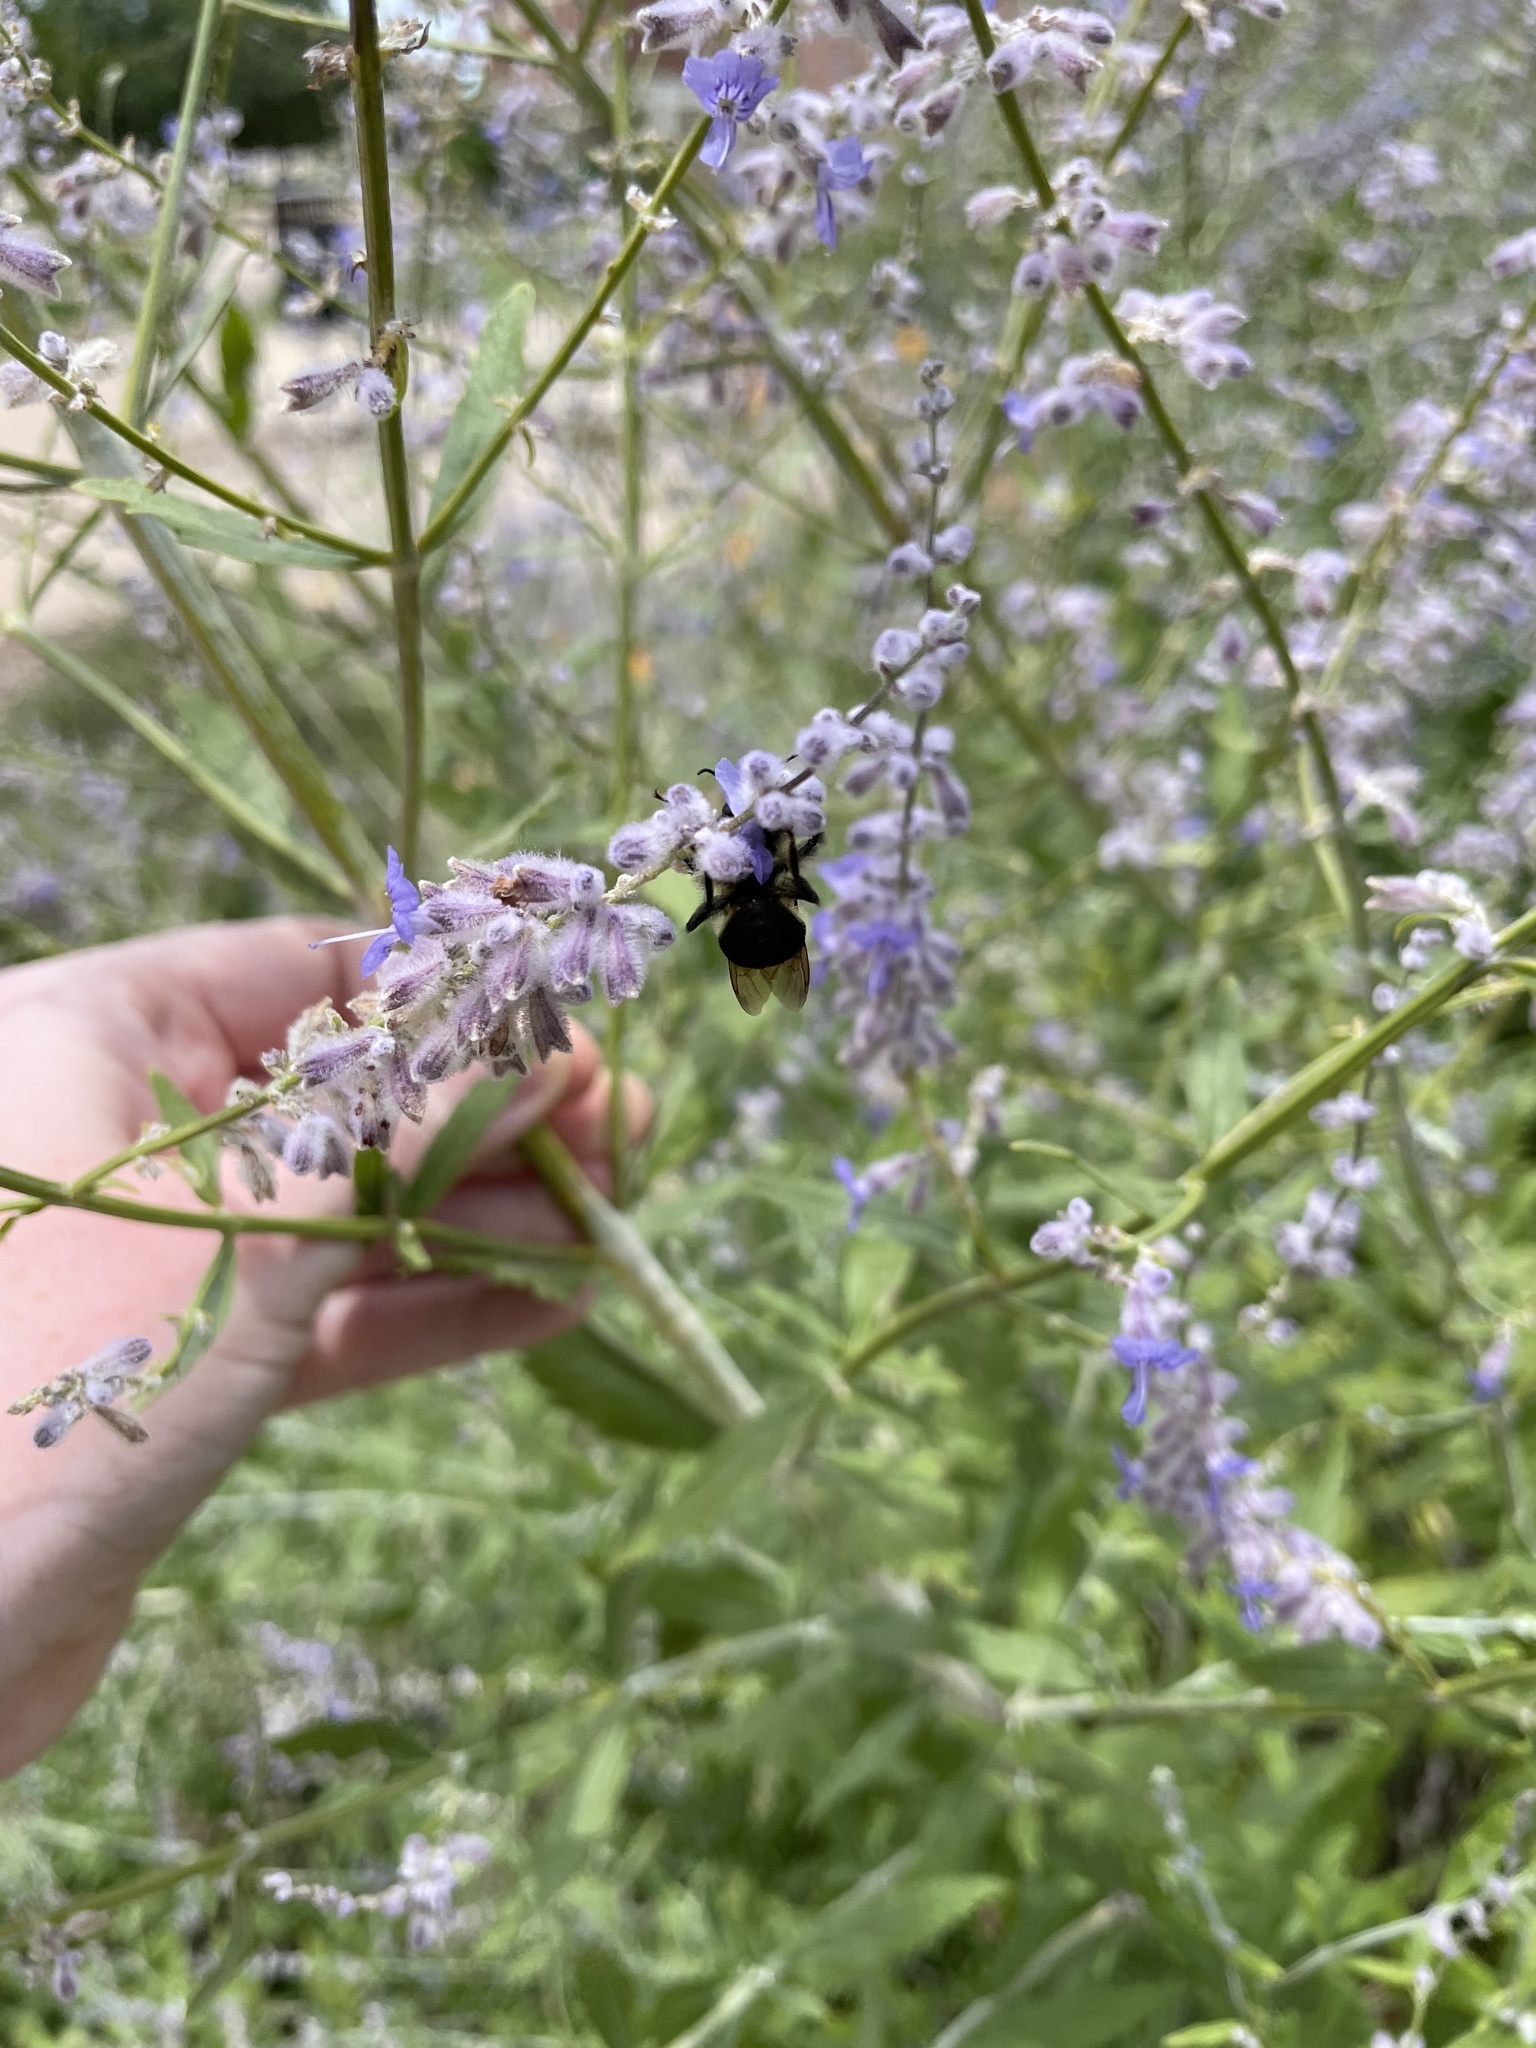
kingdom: Animalia
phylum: Arthropoda
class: Insecta
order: Hymenoptera
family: Apidae
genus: Bombus
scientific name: Bombus griseocollis
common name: Brown-belted bumble bee
